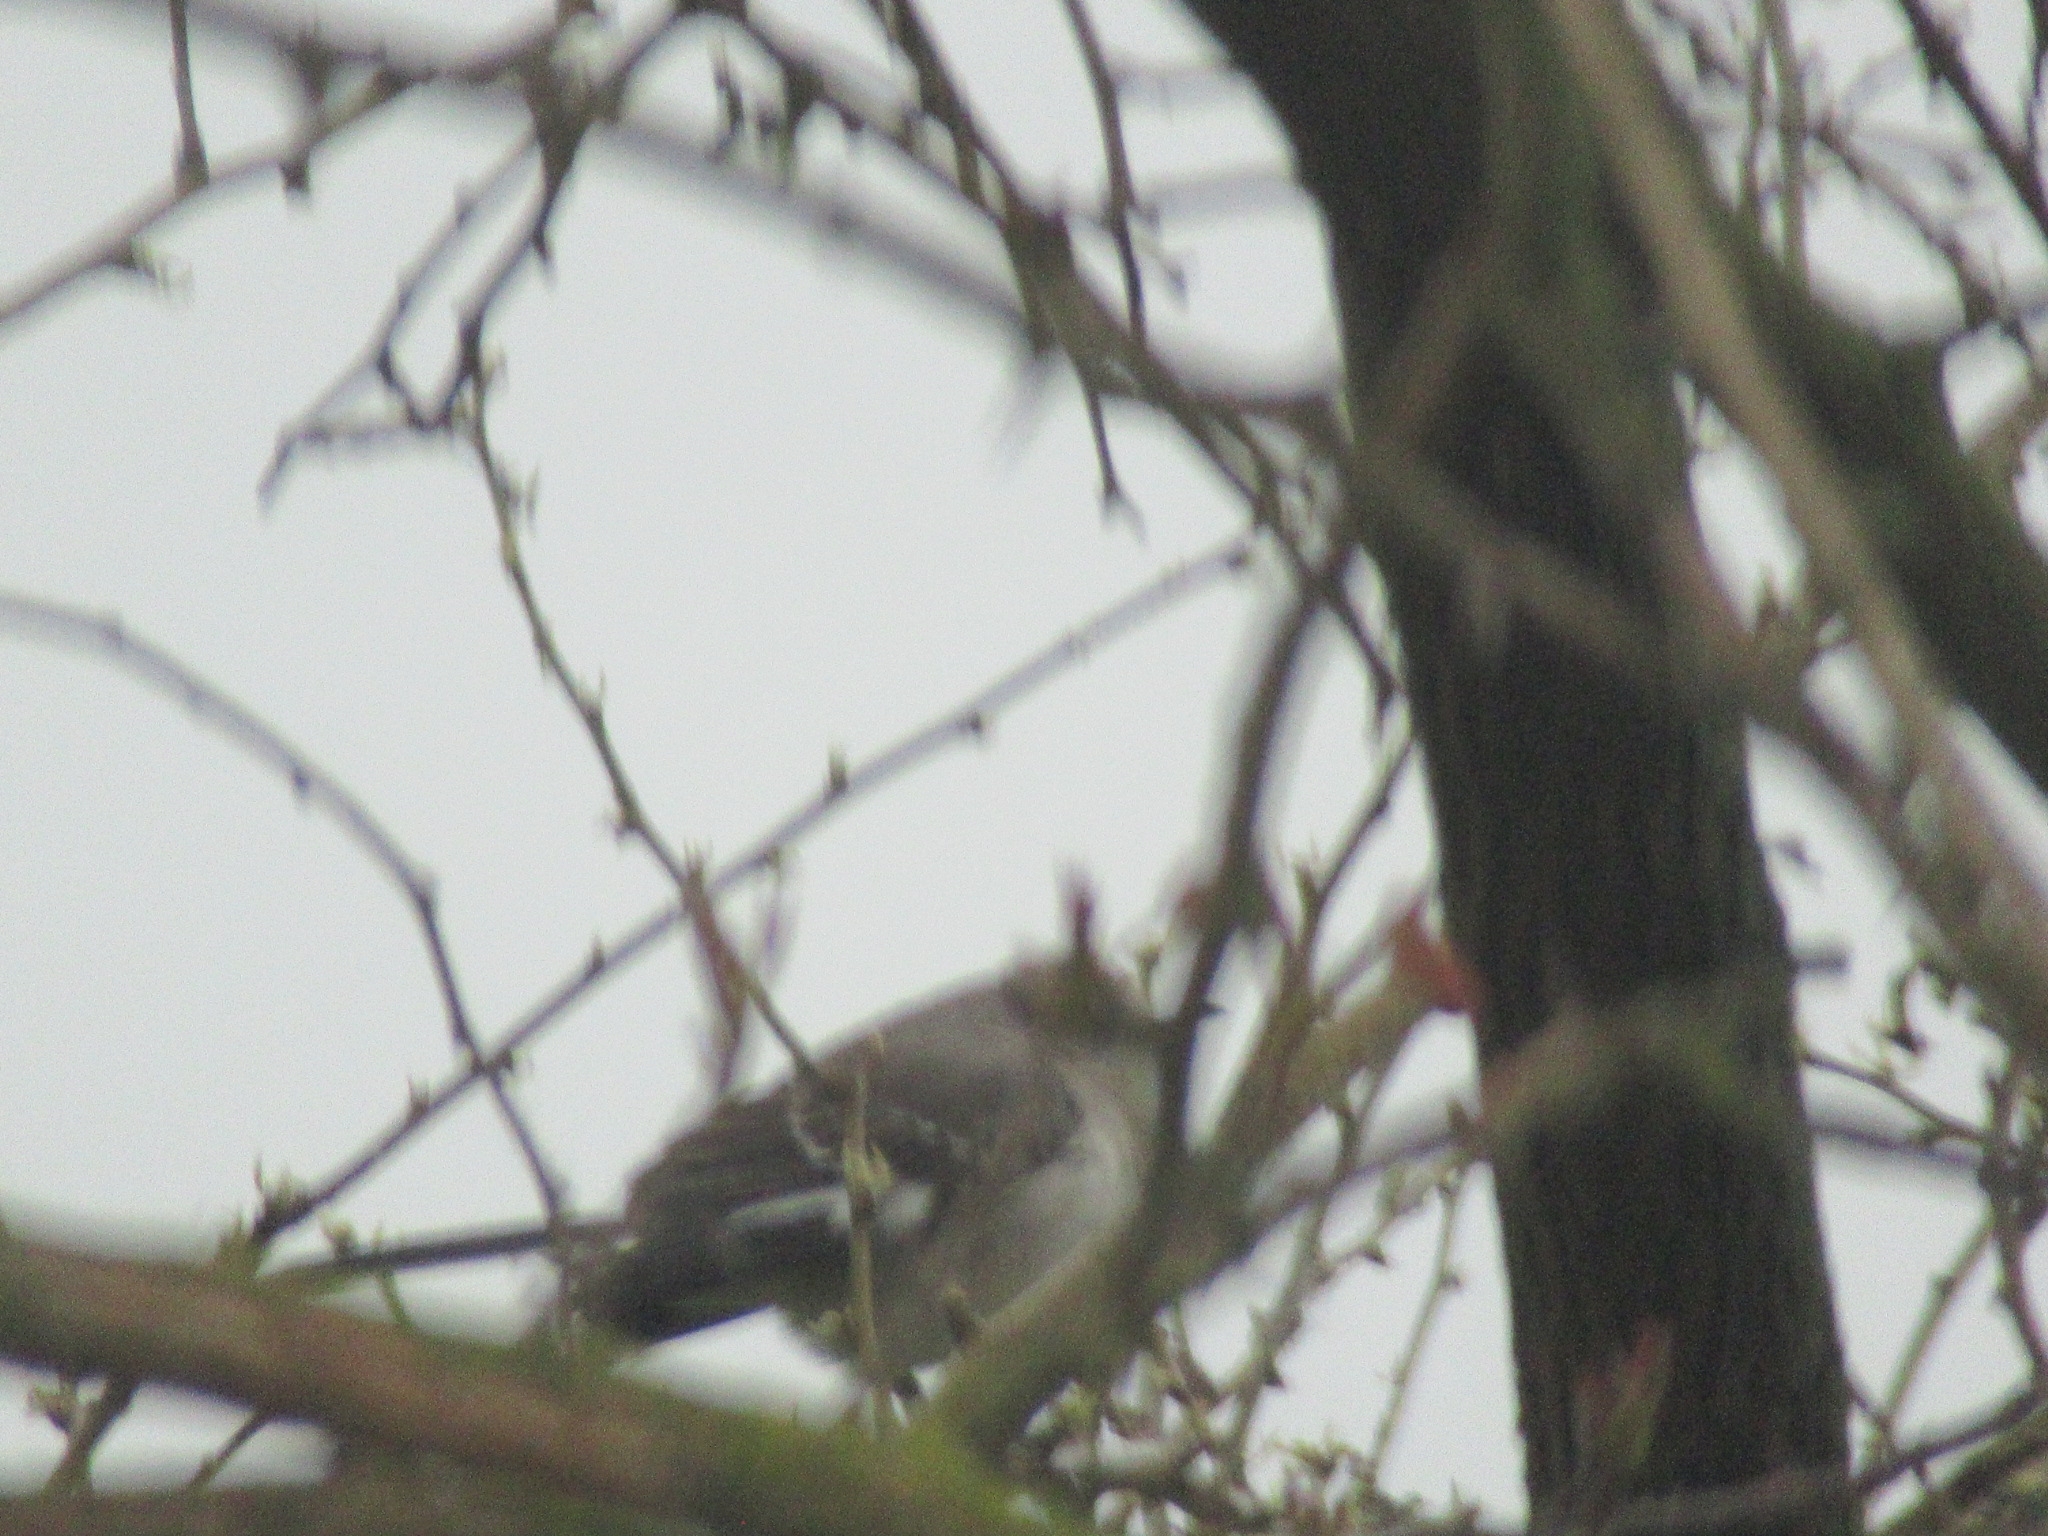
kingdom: Animalia
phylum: Chordata
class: Aves
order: Passeriformes
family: Mimidae
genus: Mimus
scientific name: Mimus polyglottos
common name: Northern mockingbird
